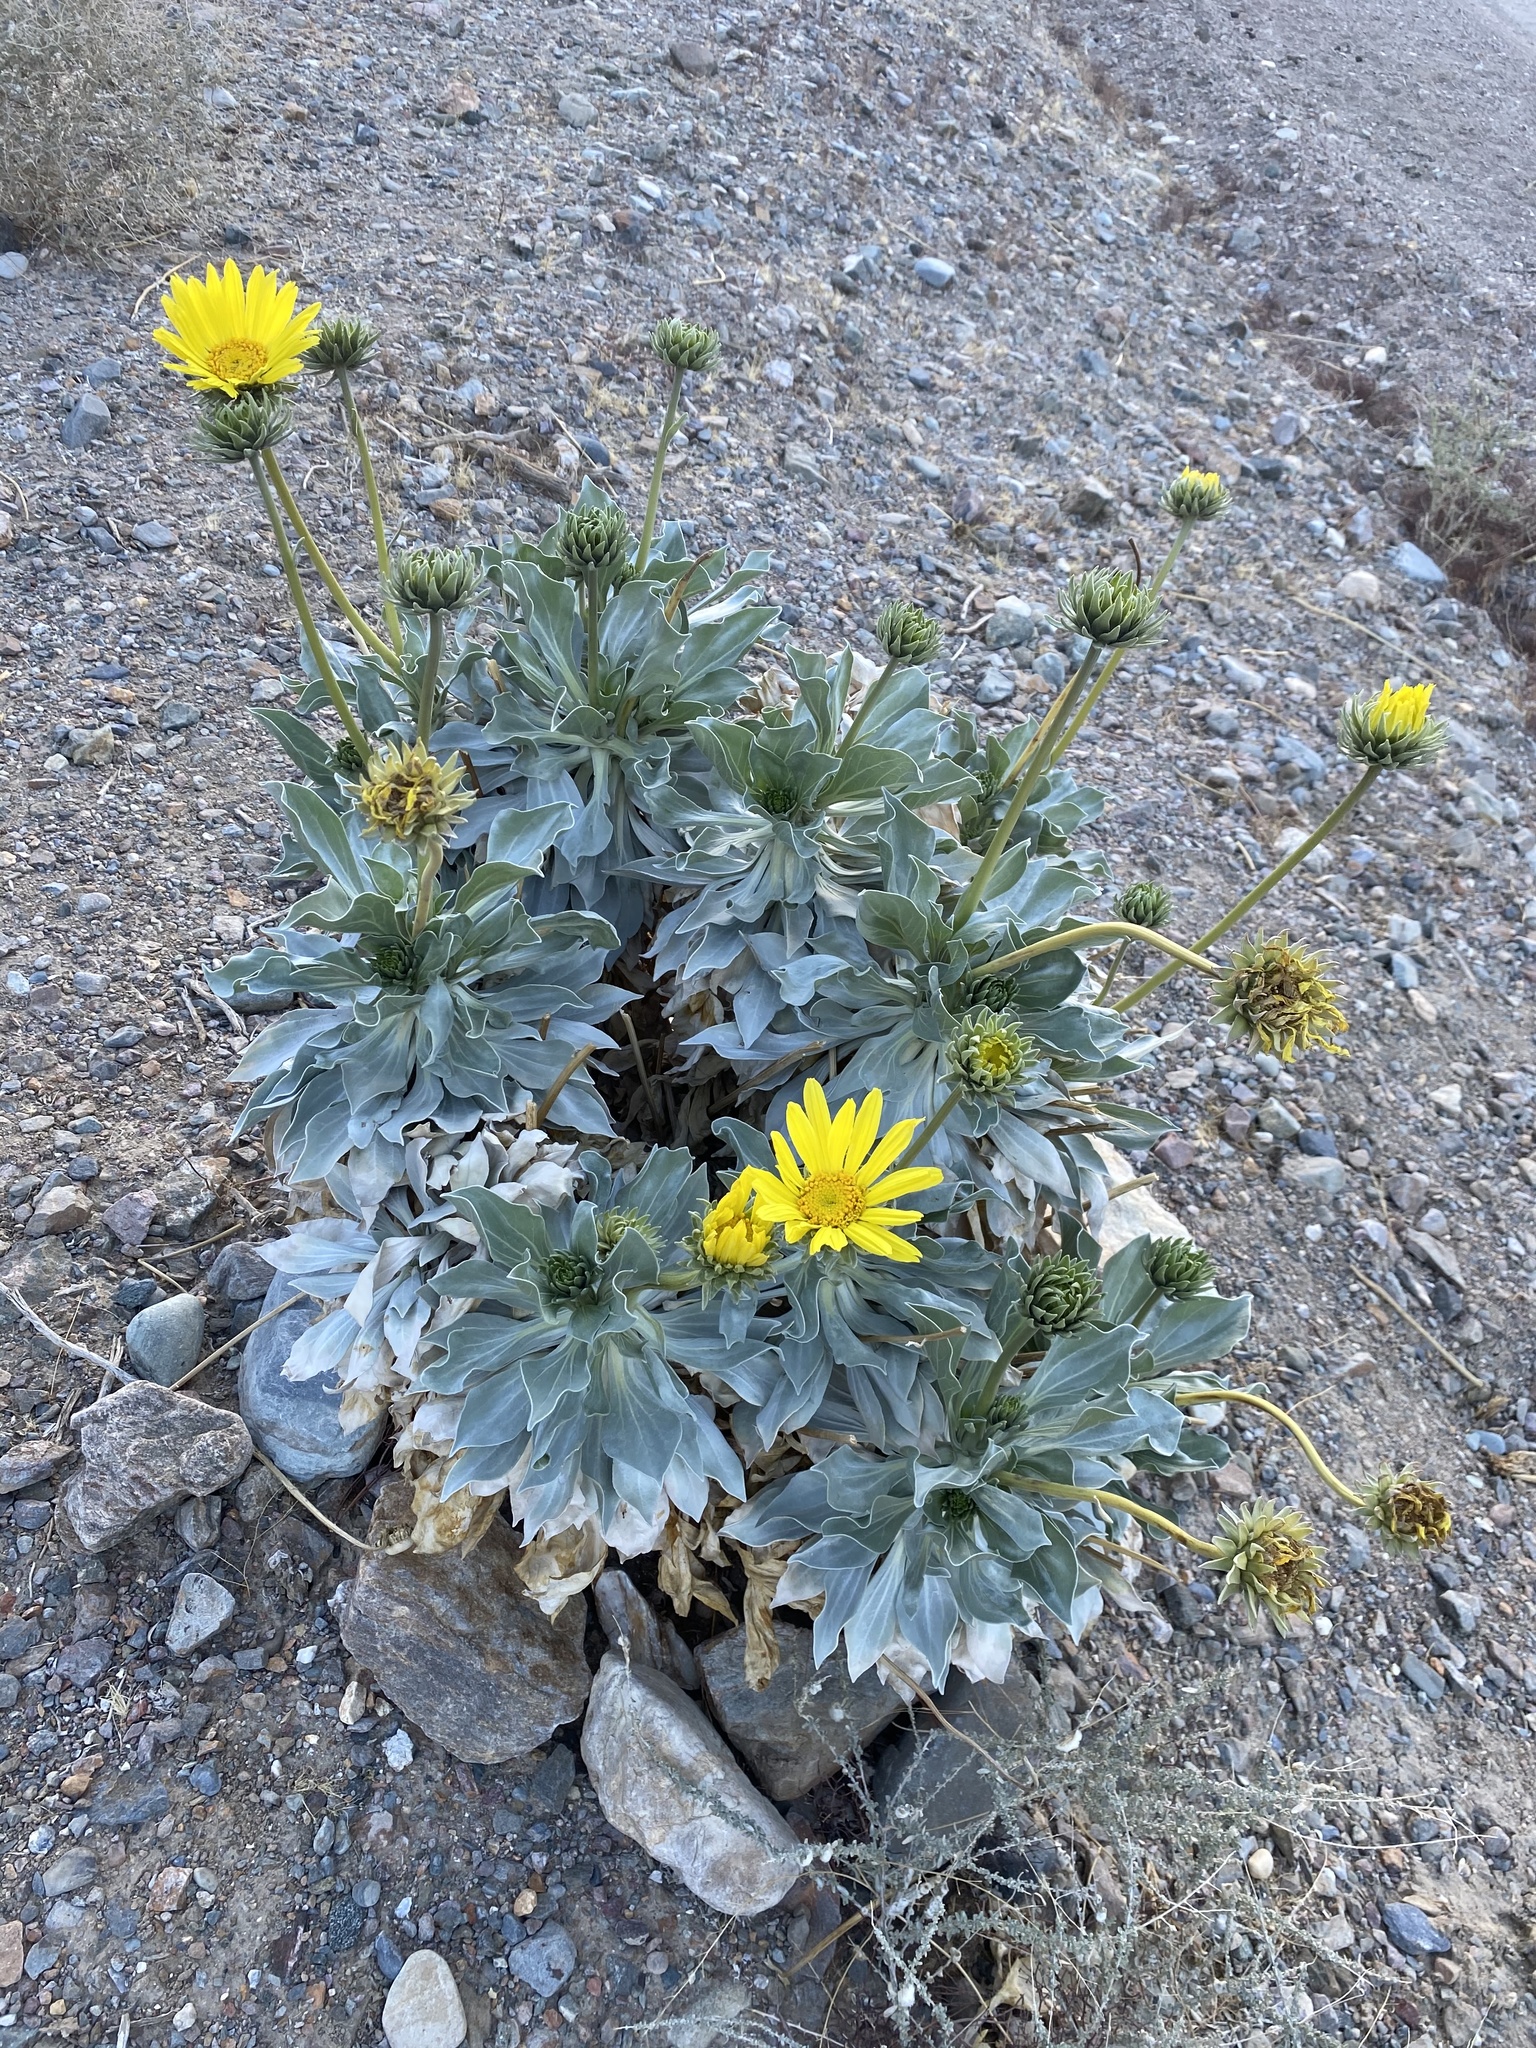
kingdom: Plantae
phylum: Tracheophyta
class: Magnoliopsida
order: Asterales
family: Asteraceae
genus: Enceliopsis
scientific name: Enceliopsis covillei
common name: Panamint daisy
